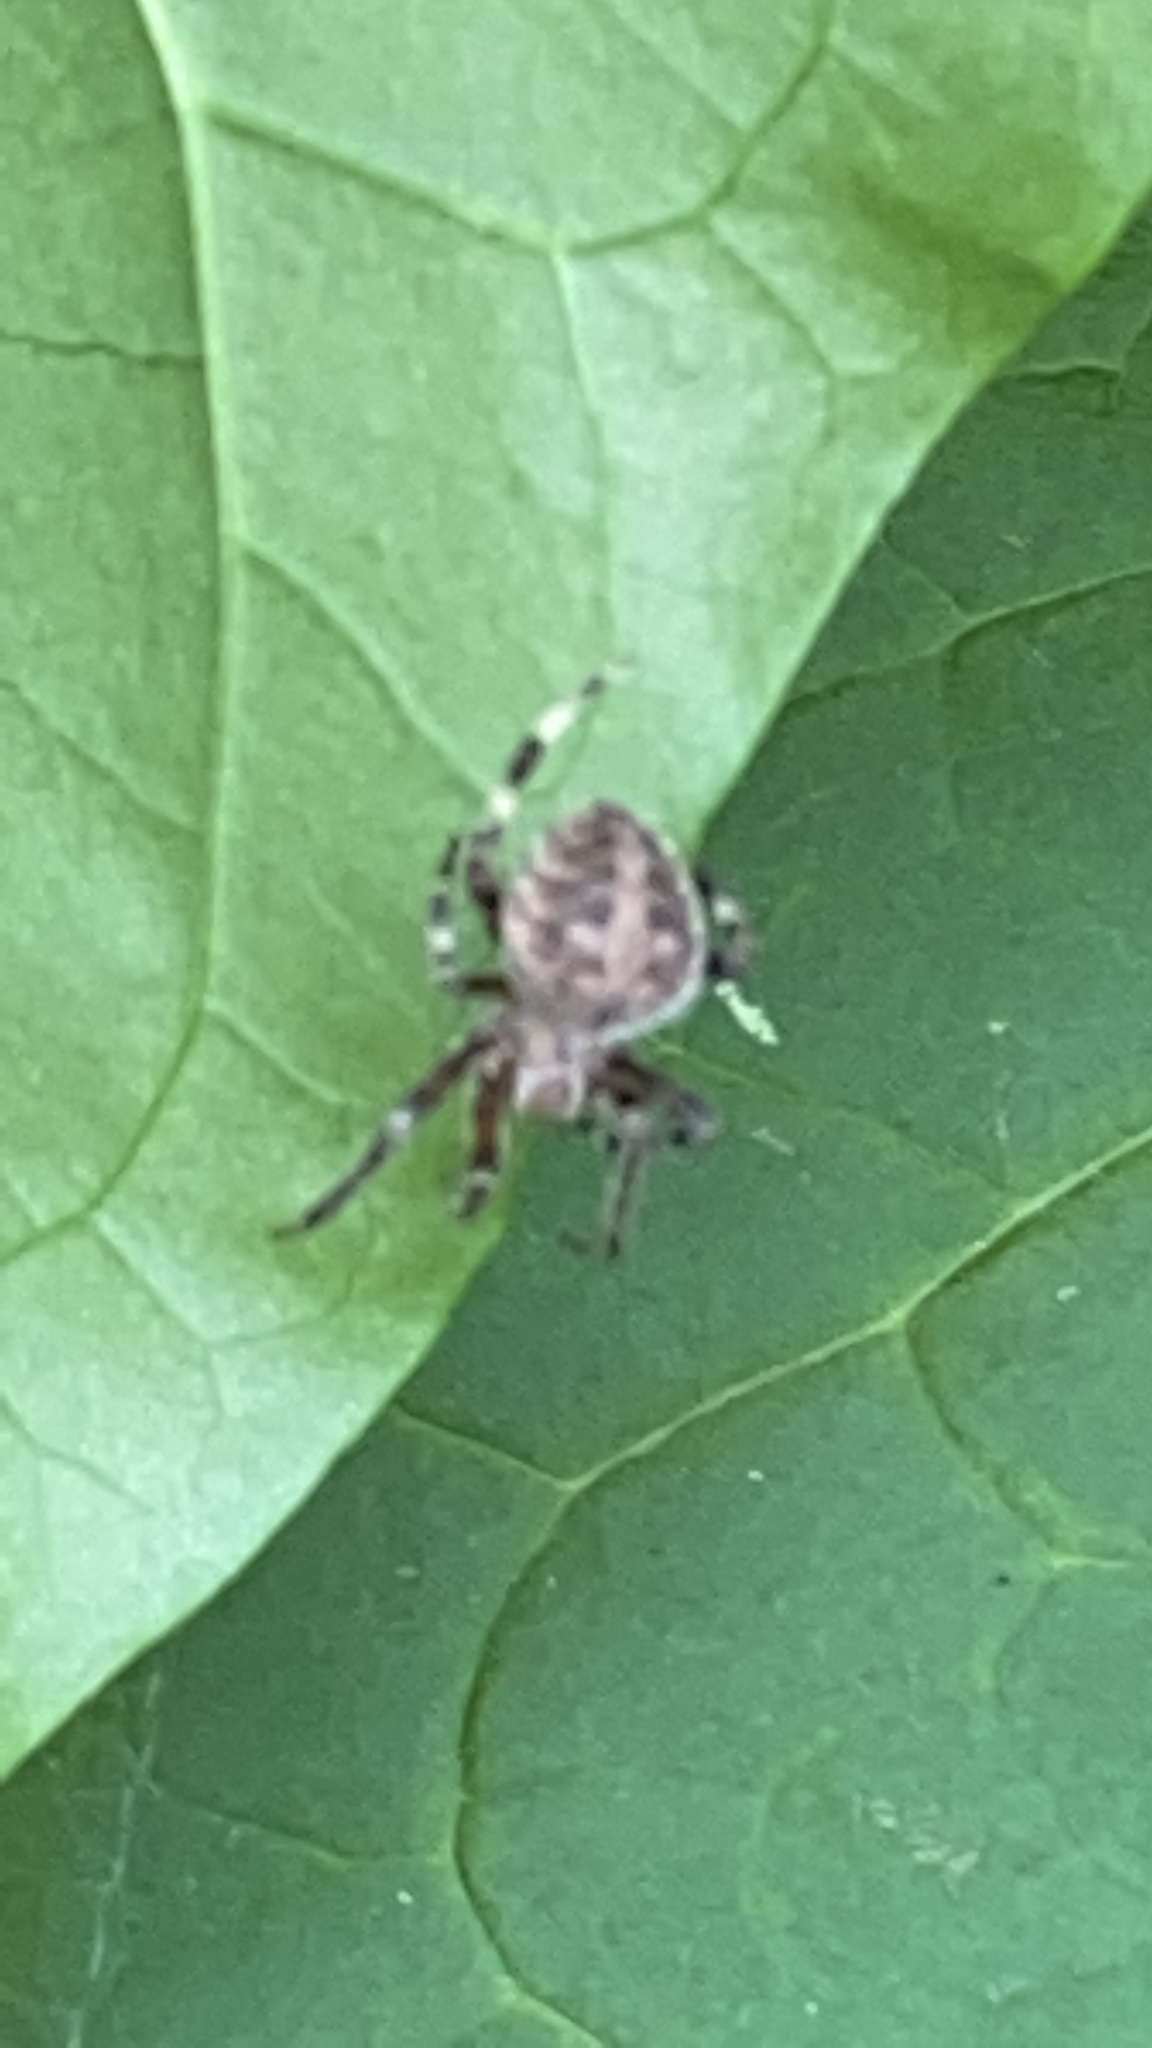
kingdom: Animalia
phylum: Arthropoda
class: Insecta
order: Hemiptera
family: Reduviidae
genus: Arilus
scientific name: Arilus cristatus
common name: North american wheel bug
